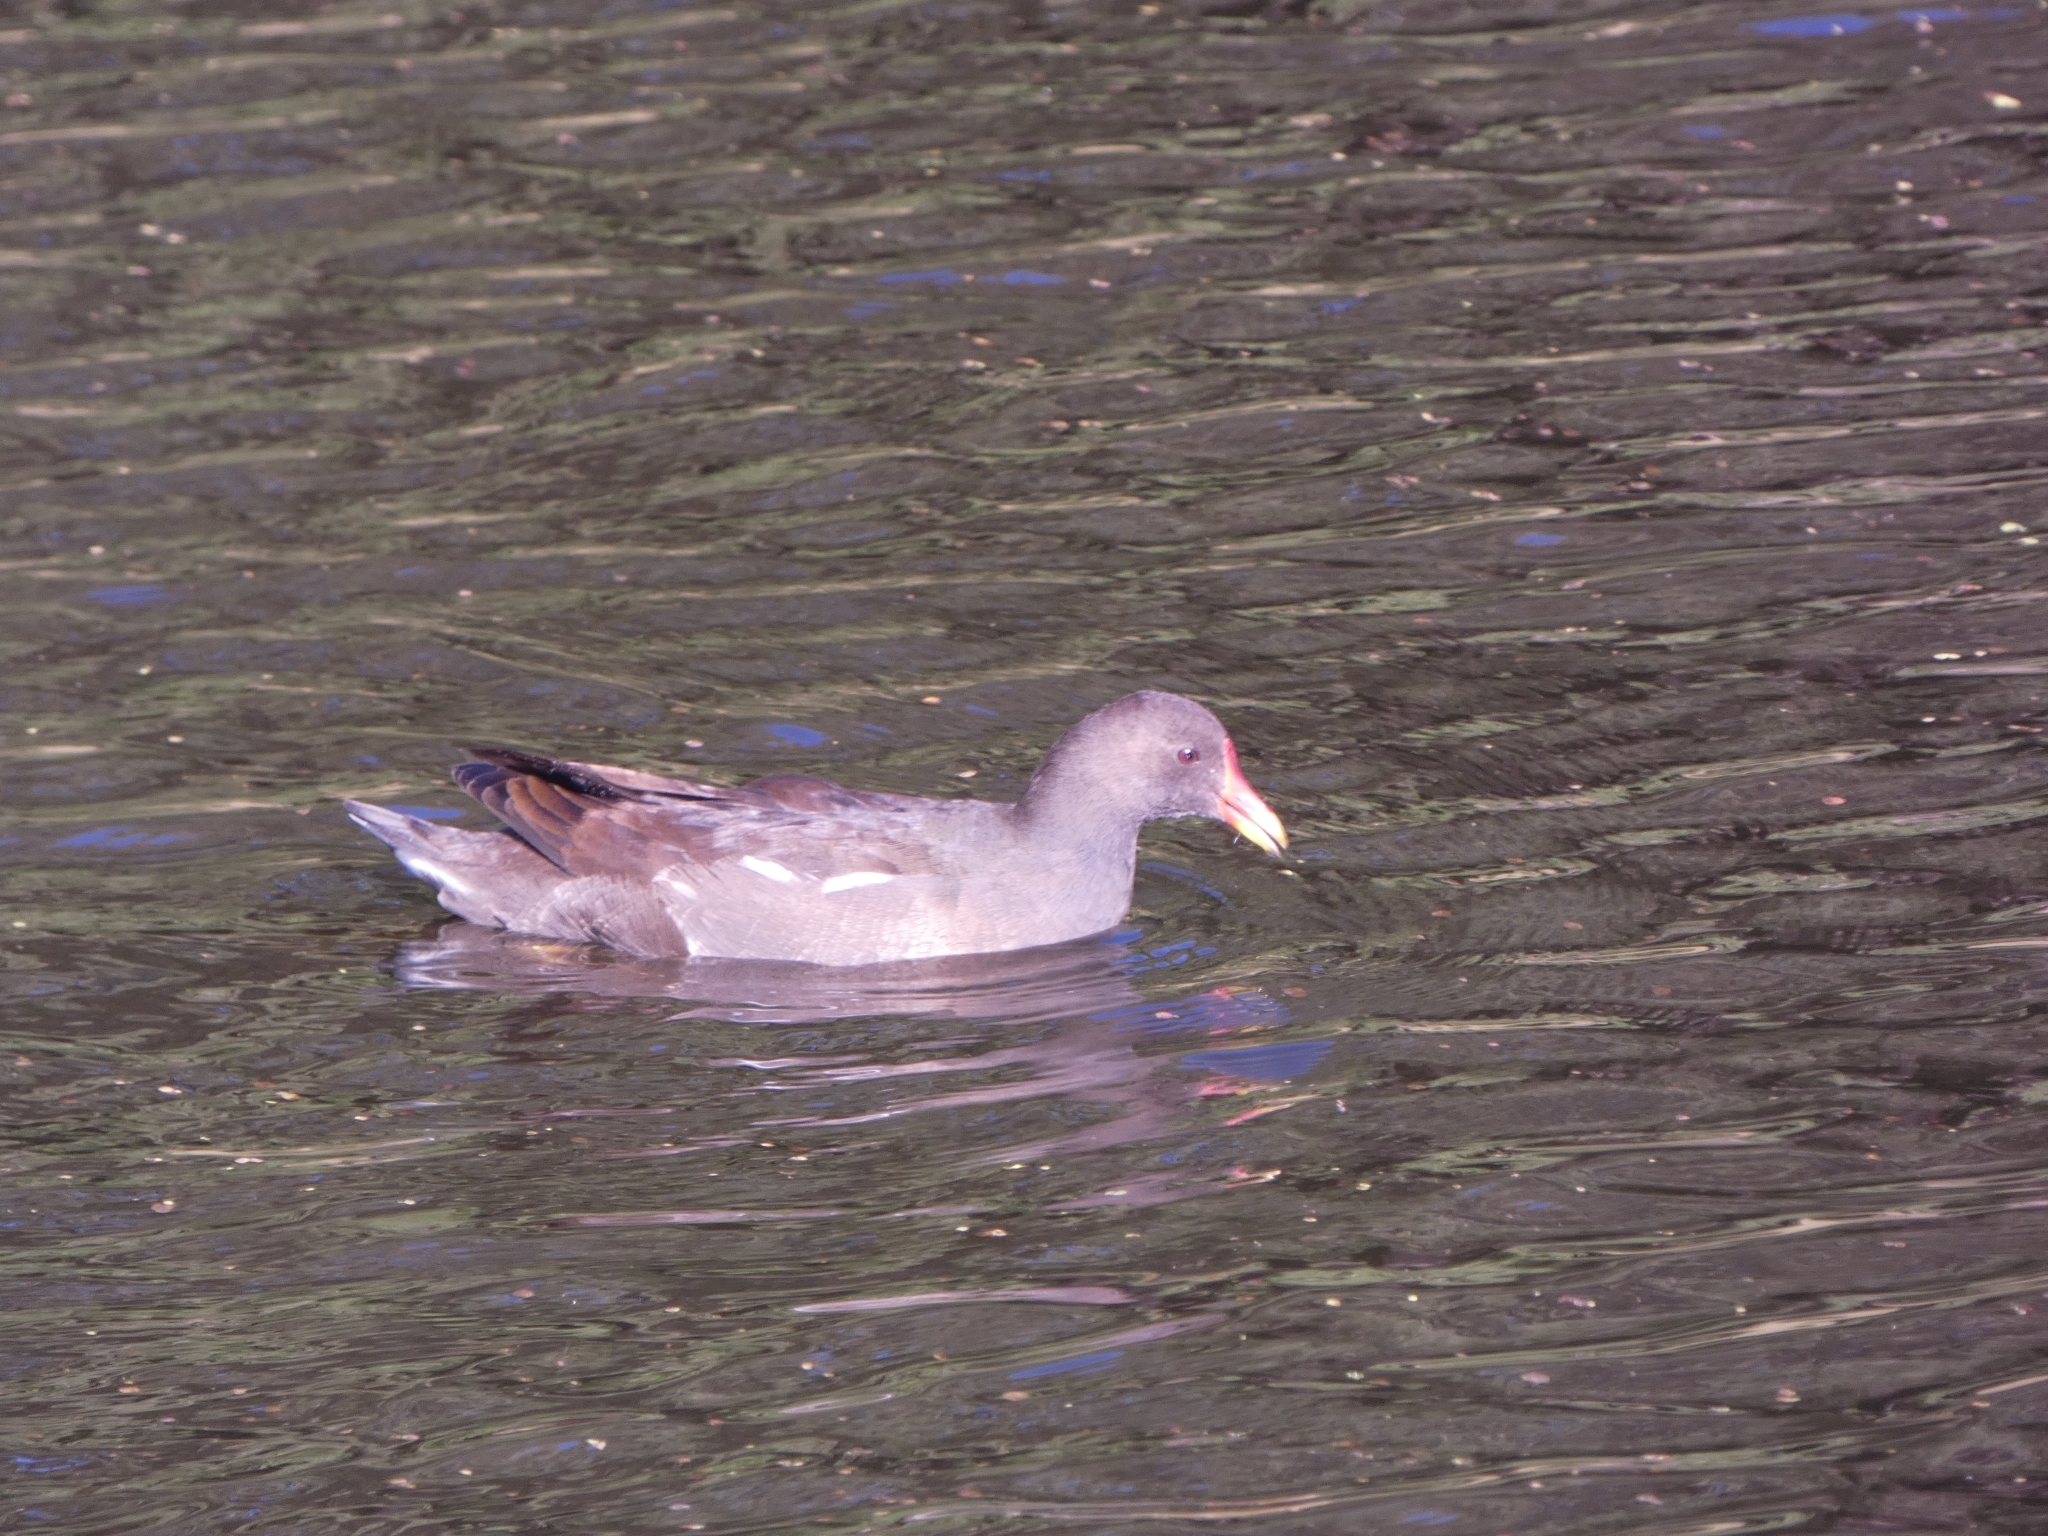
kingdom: Animalia
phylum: Chordata
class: Aves
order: Gruiformes
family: Rallidae
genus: Gallinula
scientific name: Gallinula chloropus
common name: Common moorhen
